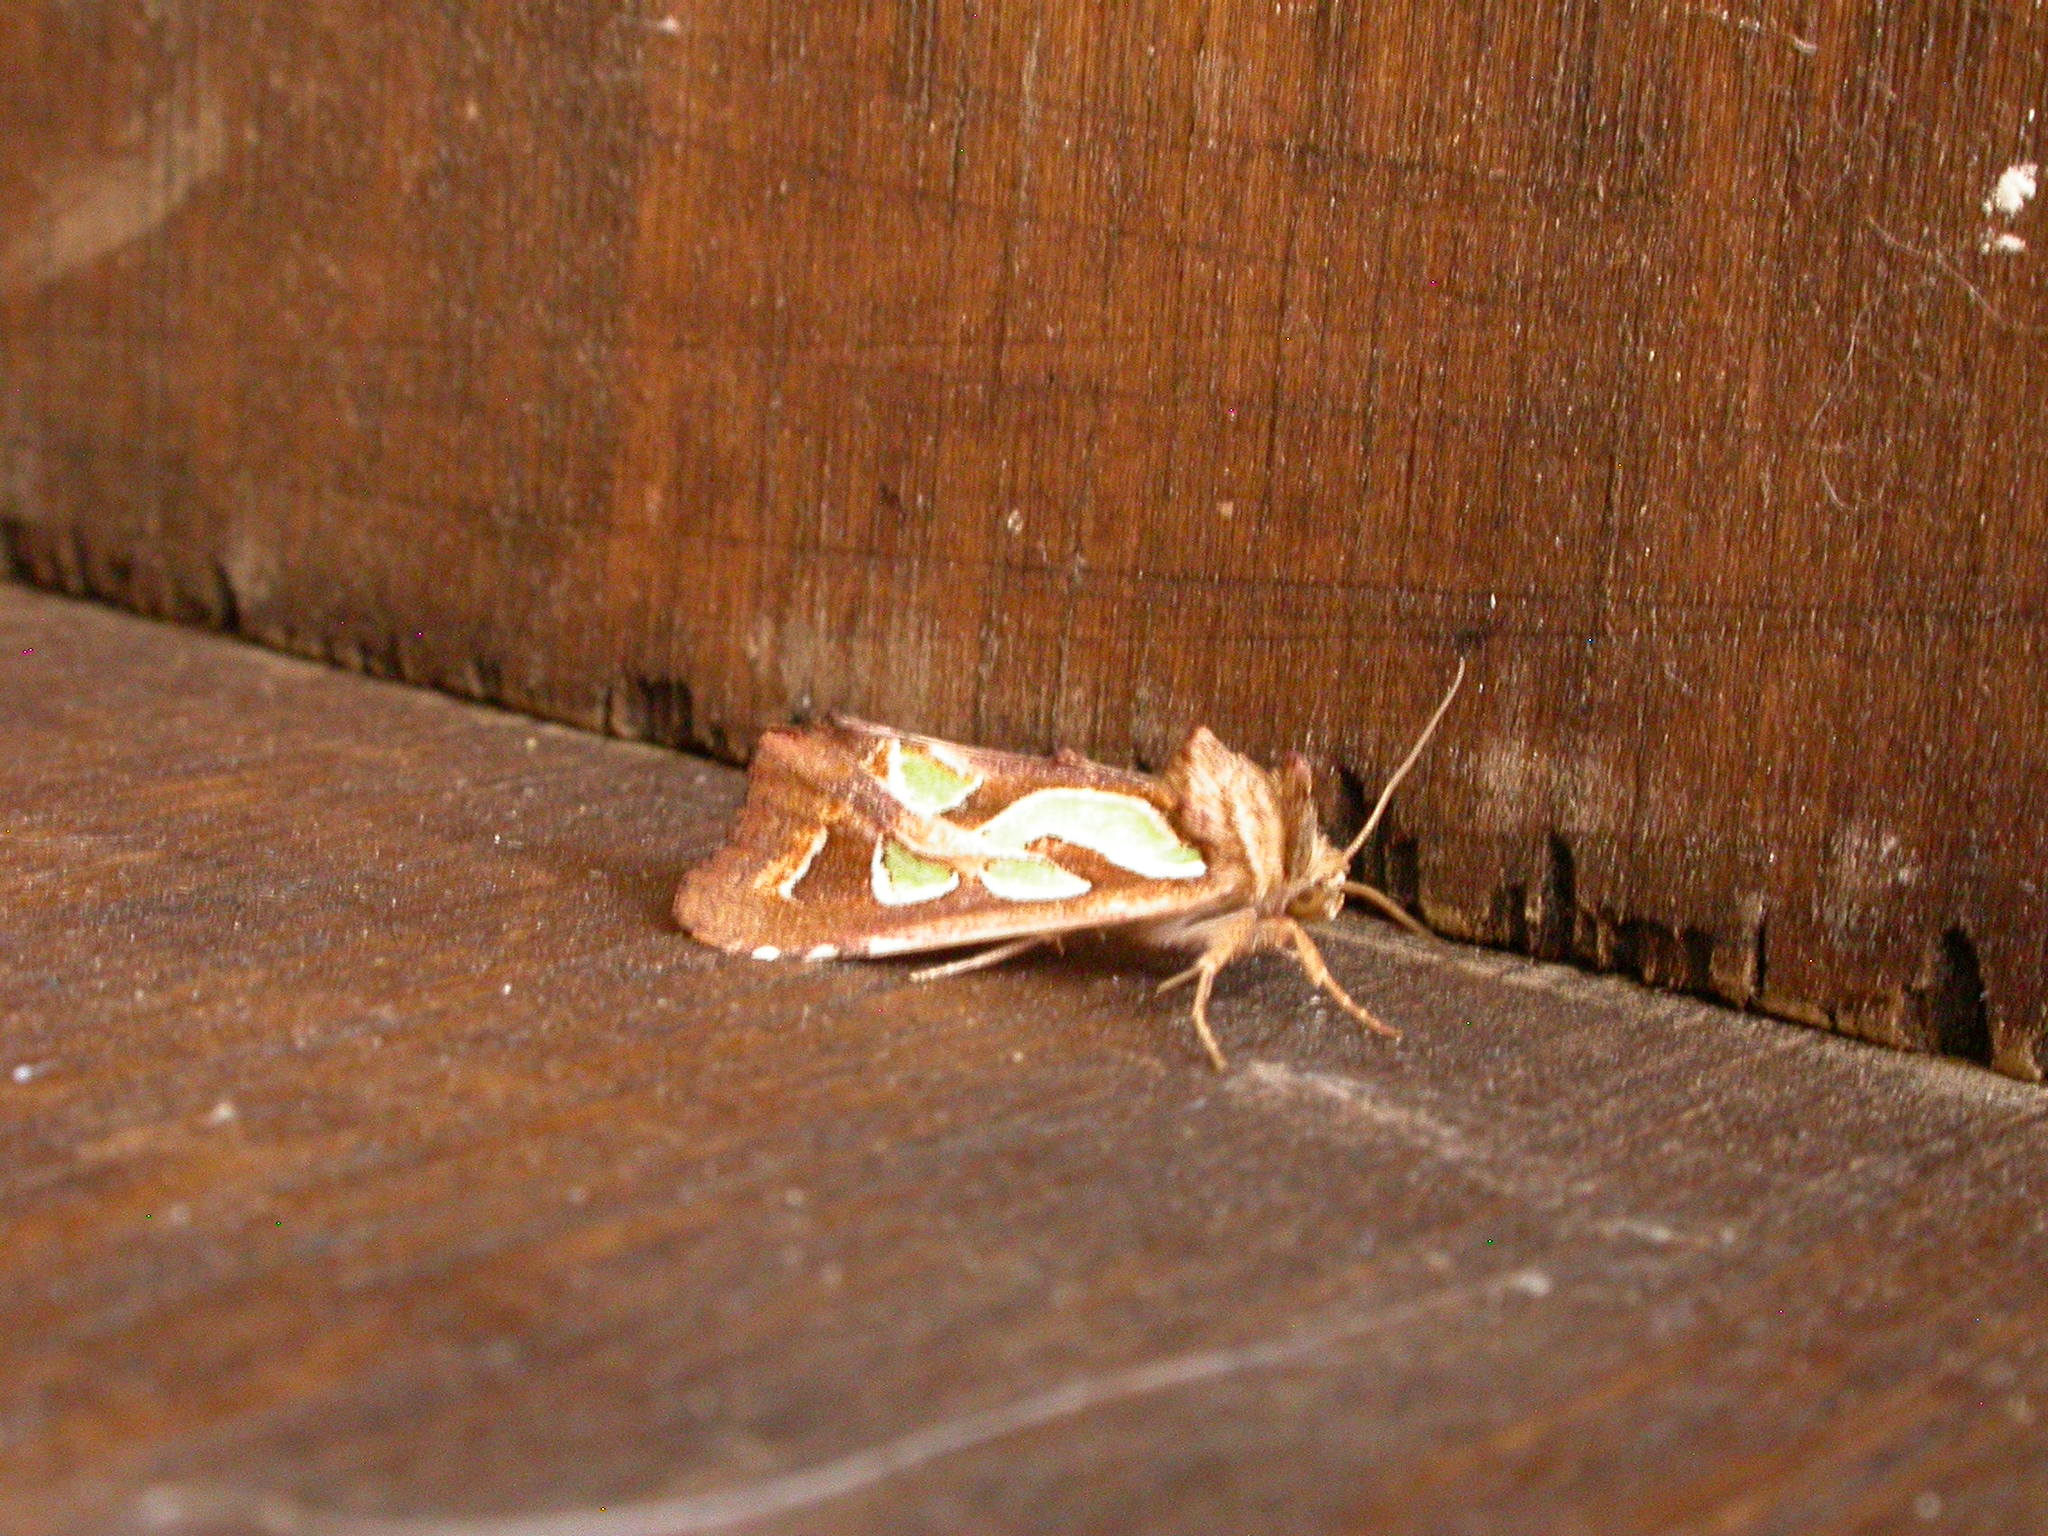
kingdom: Animalia
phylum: Arthropoda
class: Insecta
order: Lepidoptera
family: Noctuidae
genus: Cosmodes
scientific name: Cosmodes elegans
